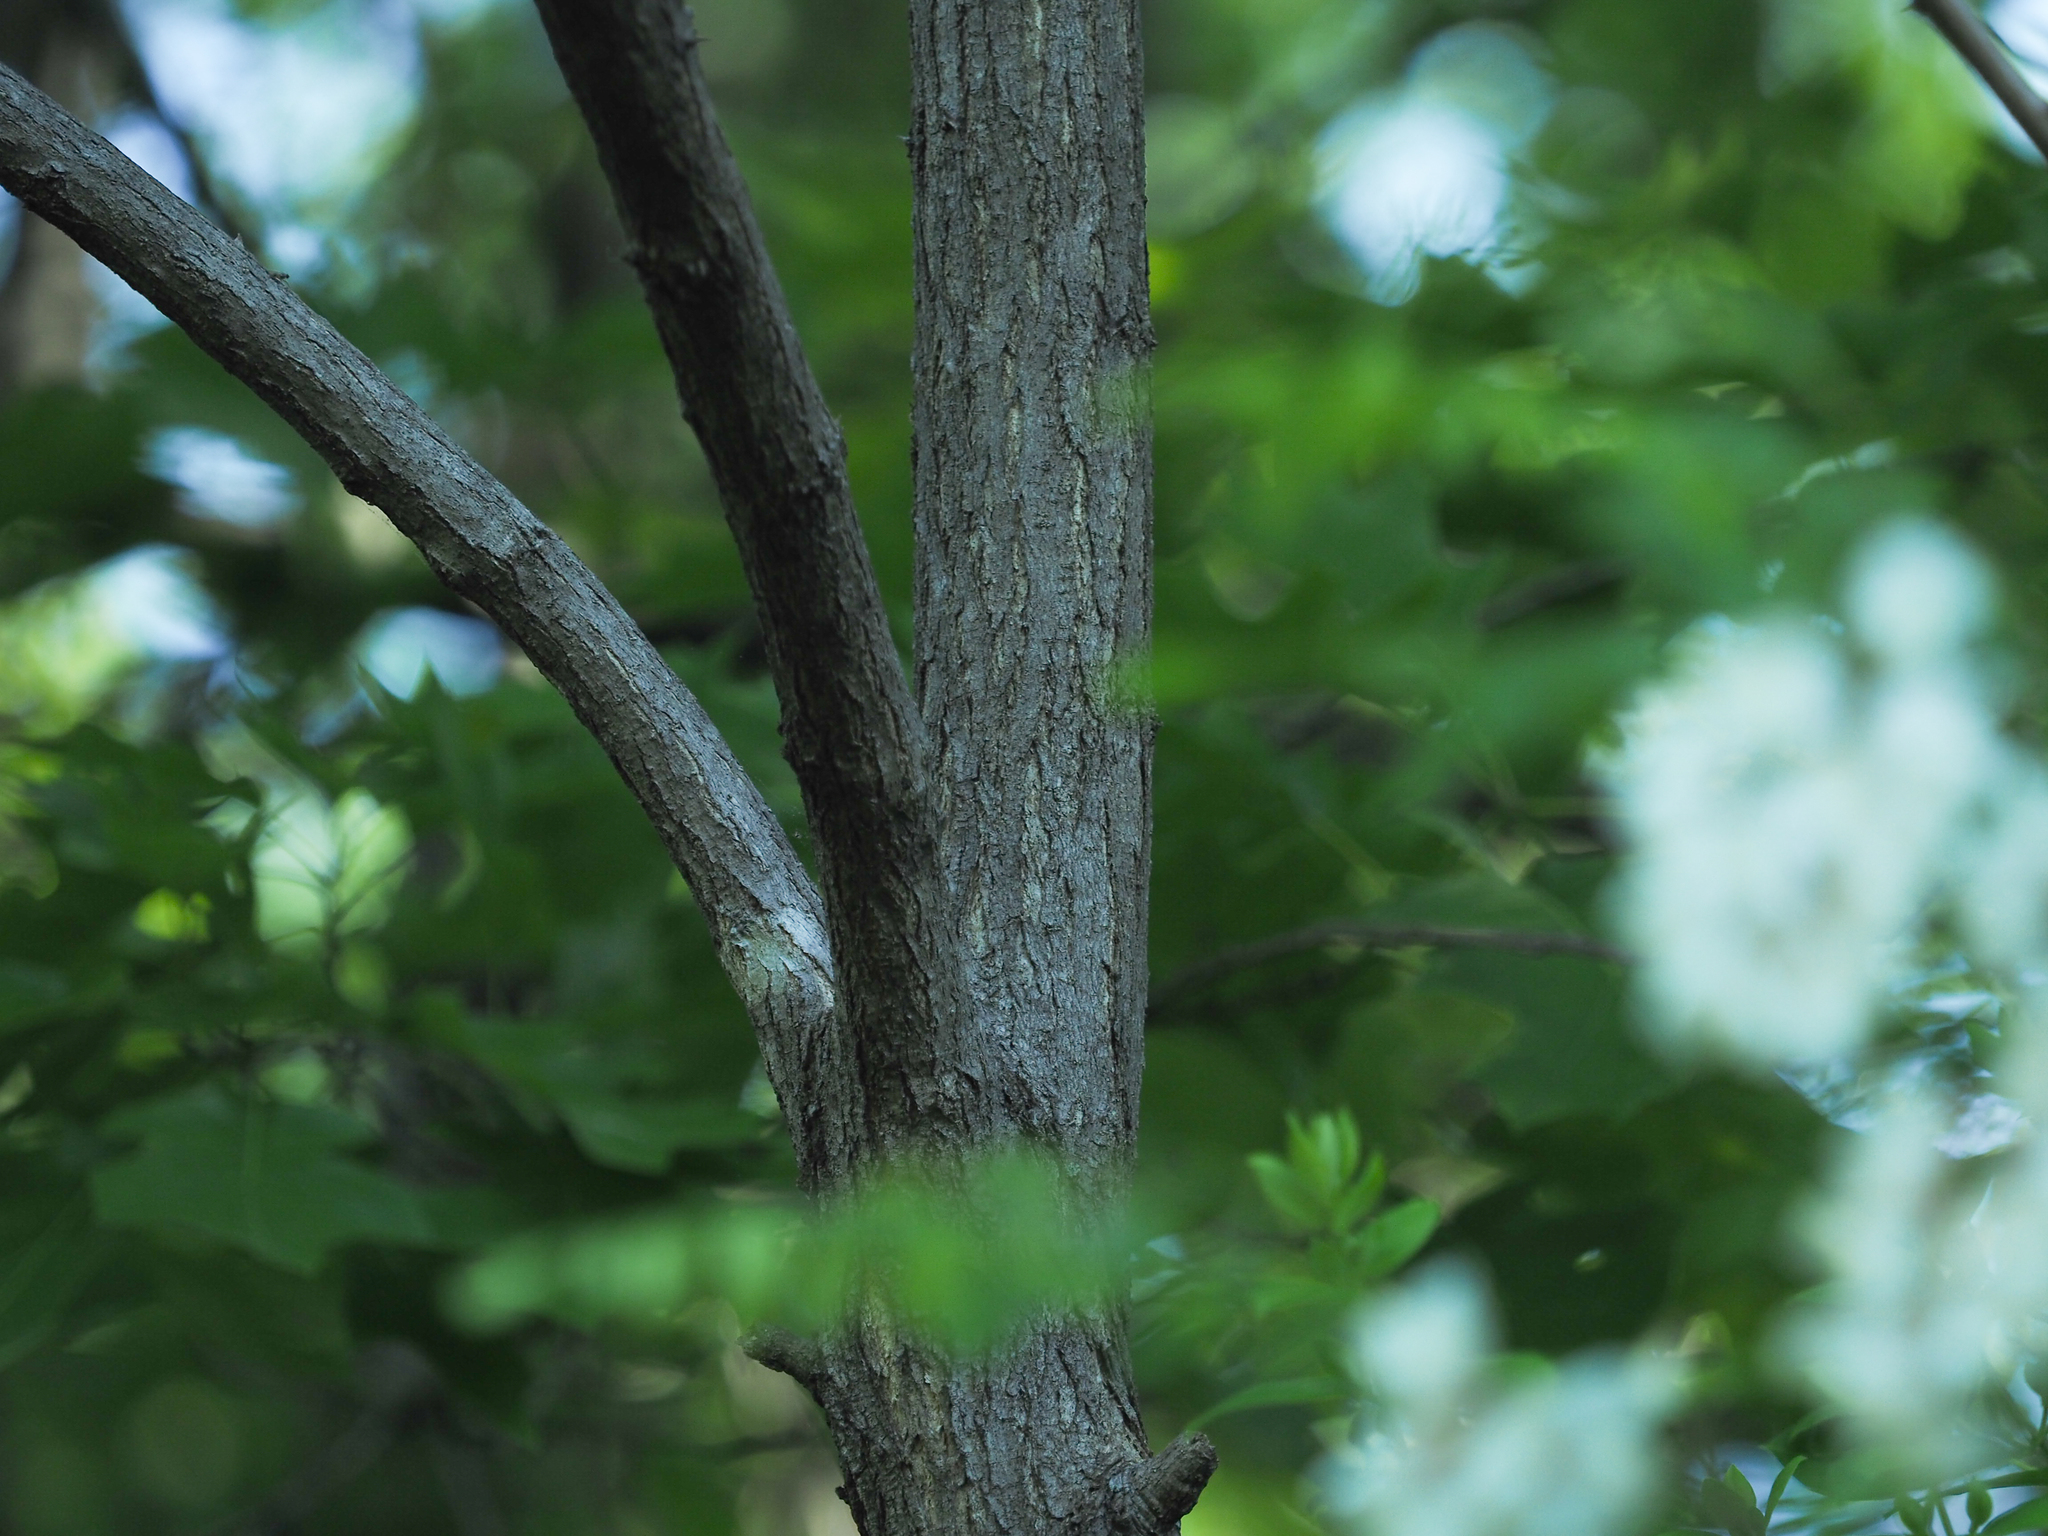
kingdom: Plantae
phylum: Tracheophyta
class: Magnoliopsida
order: Fabales
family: Fabaceae
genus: Robinia
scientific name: Robinia pseudoacacia
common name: Black locust
